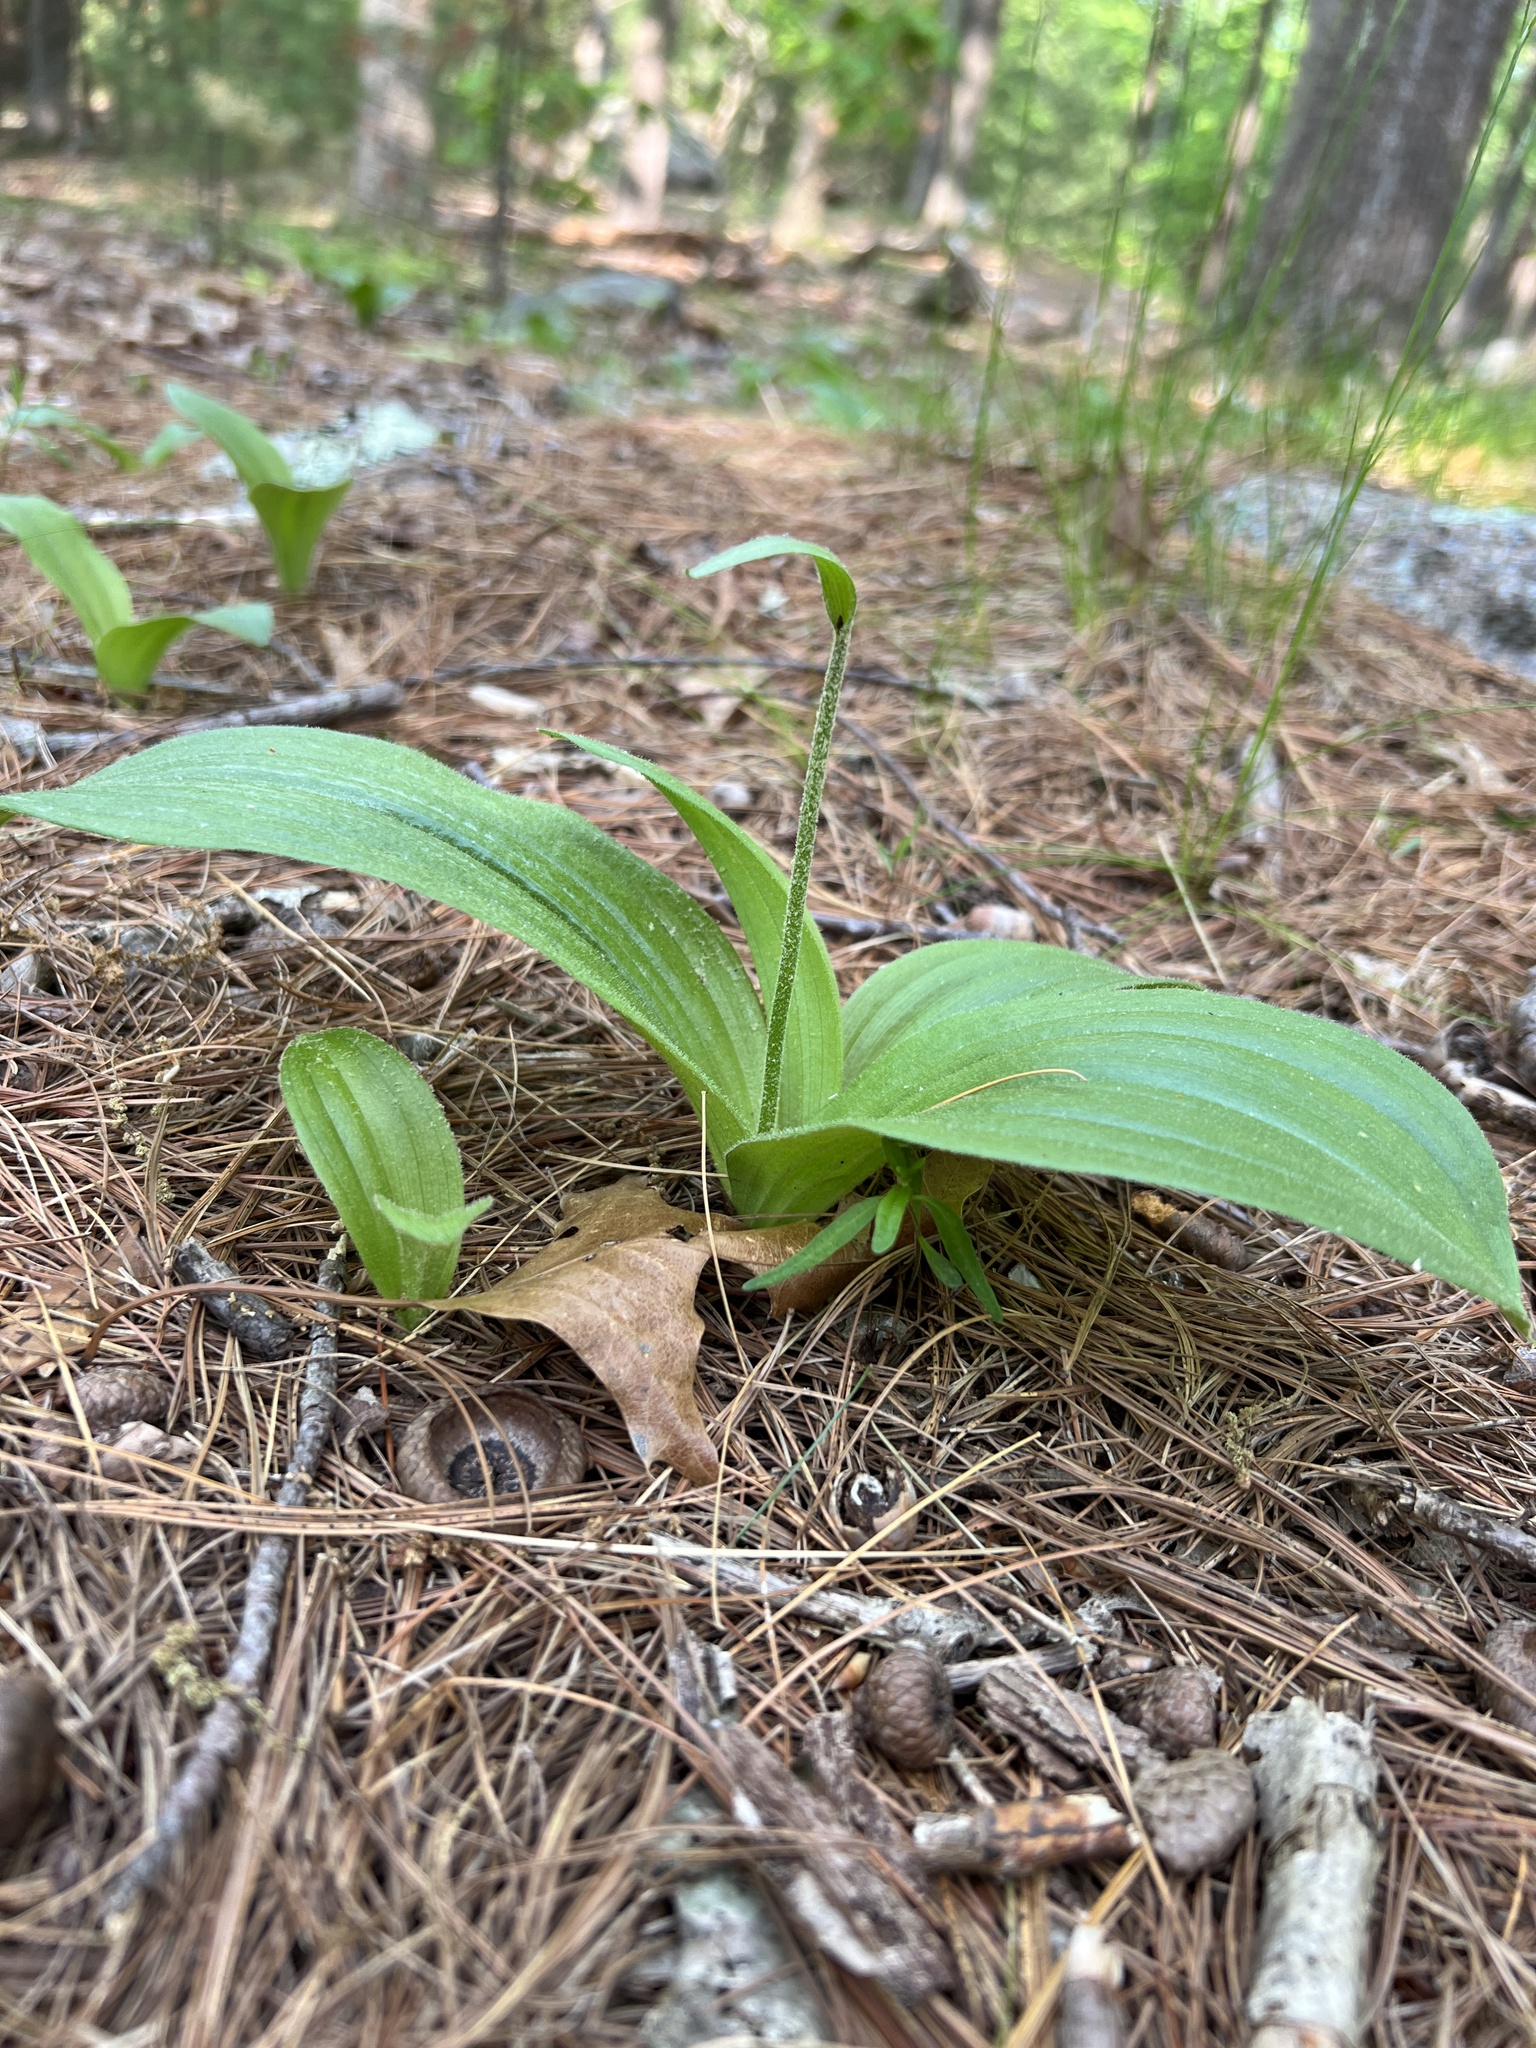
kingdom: Plantae
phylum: Tracheophyta
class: Liliopsida
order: Asparagales
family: Orchidaceae
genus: Cypripedium
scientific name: Cypripedium acaule
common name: Pink lady's-slipper
